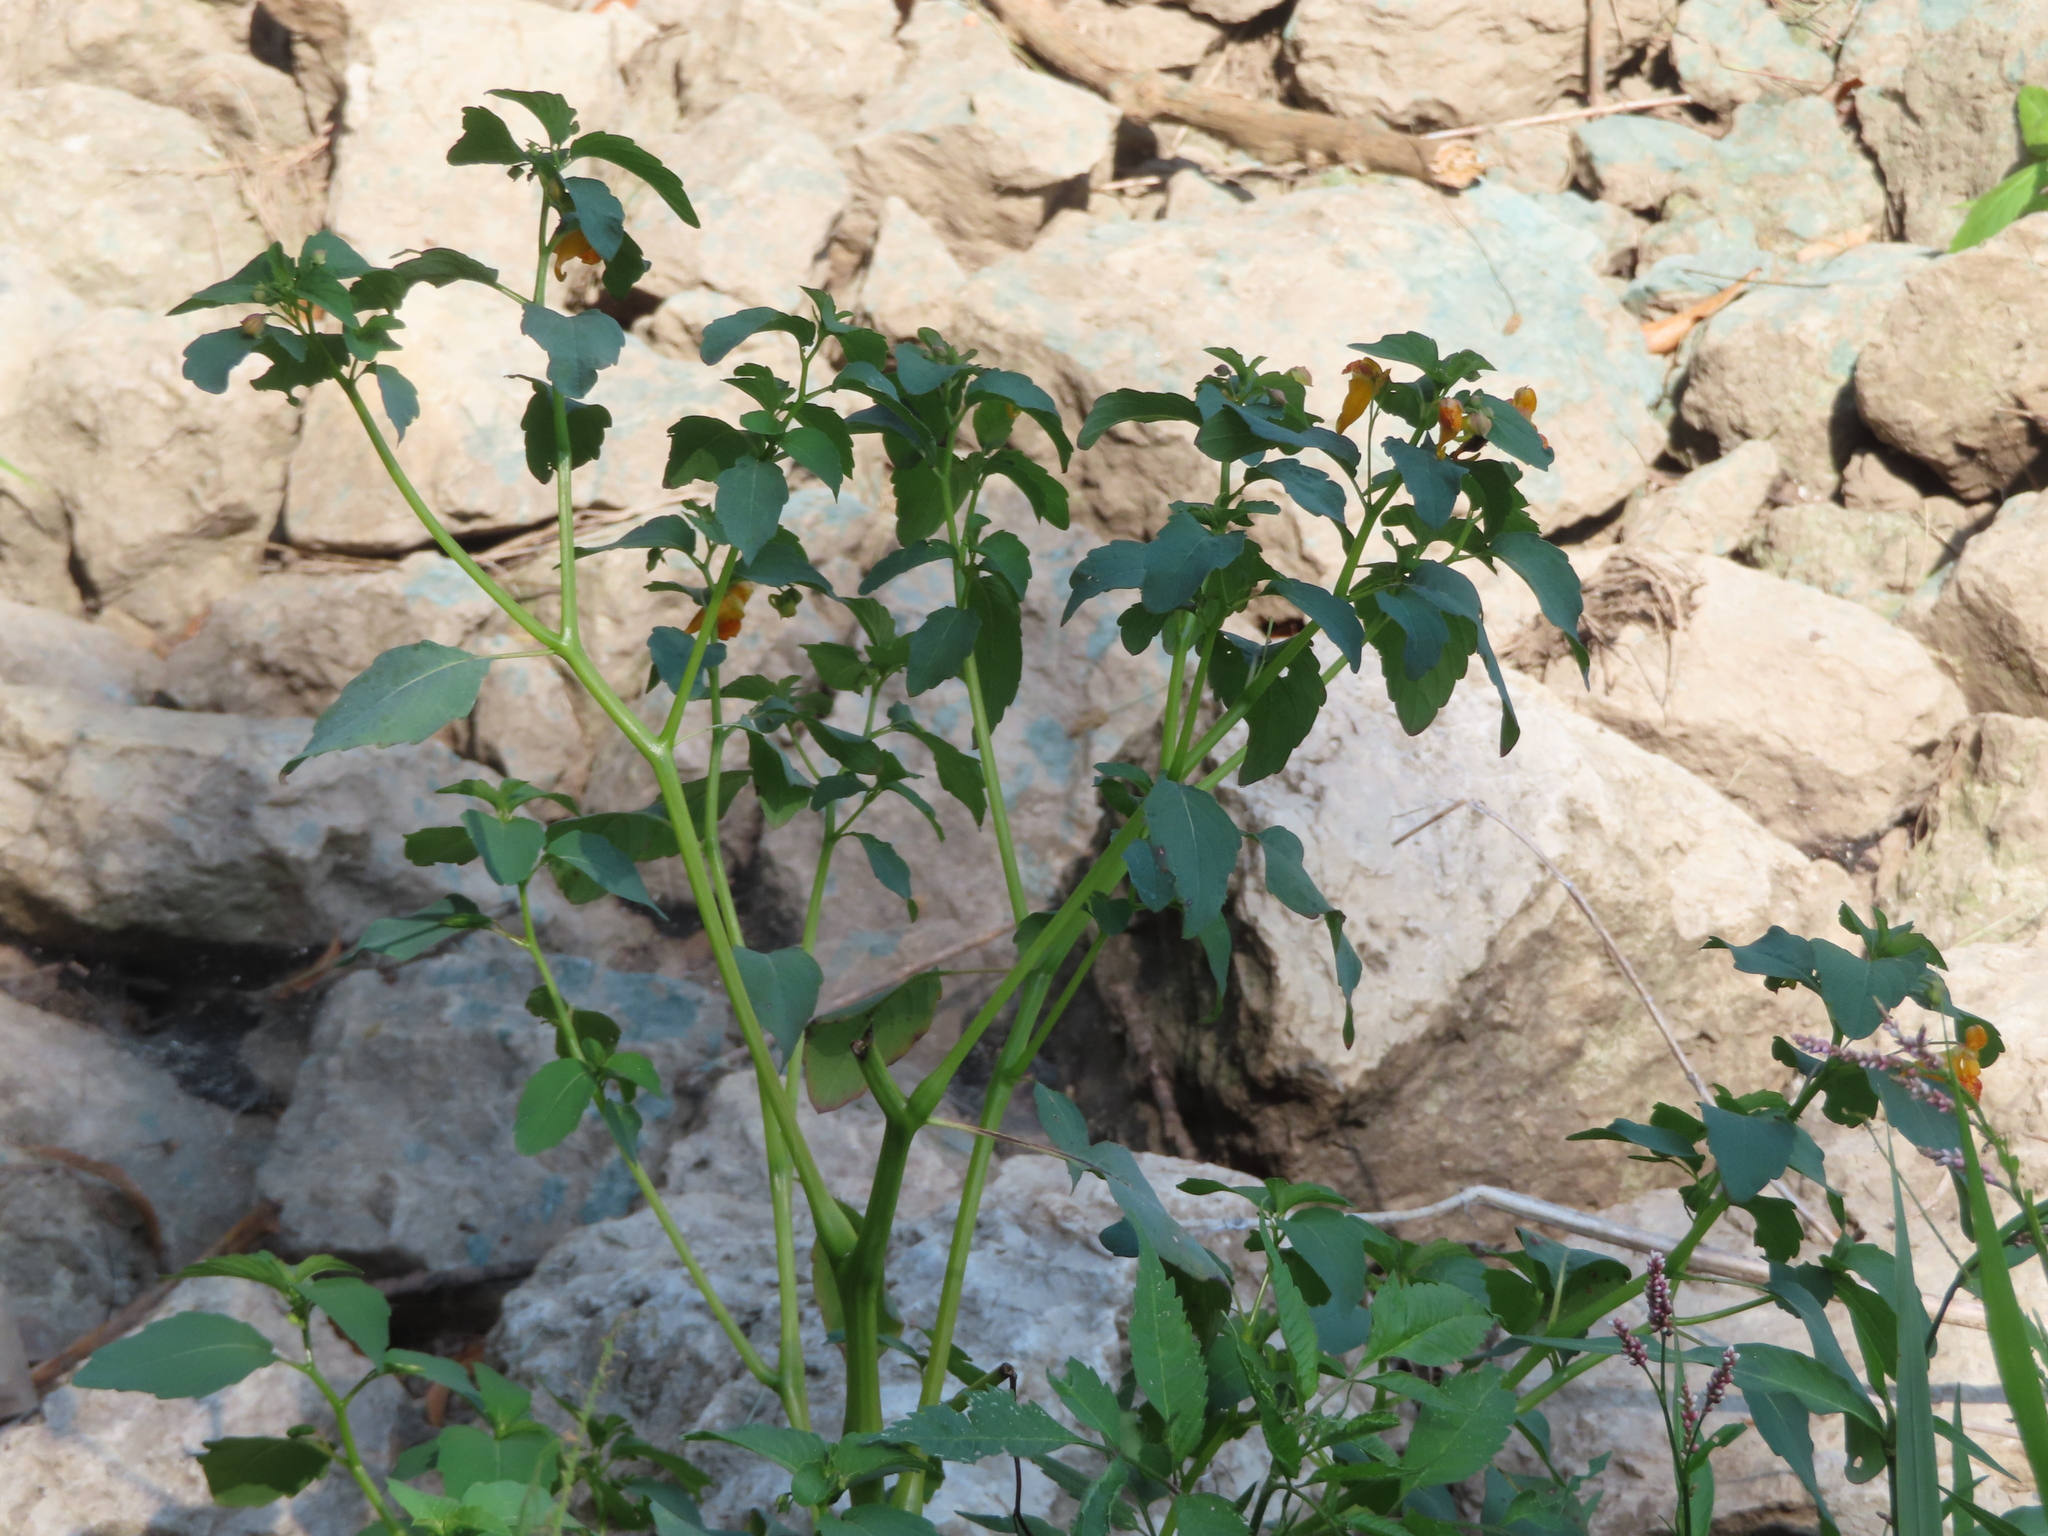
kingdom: Plantae
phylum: Tracheophyta
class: Magnoliopsida
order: Ericales
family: Balsaminaceae
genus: Impatiens
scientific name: Impatiens capensis
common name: Orange balsam
